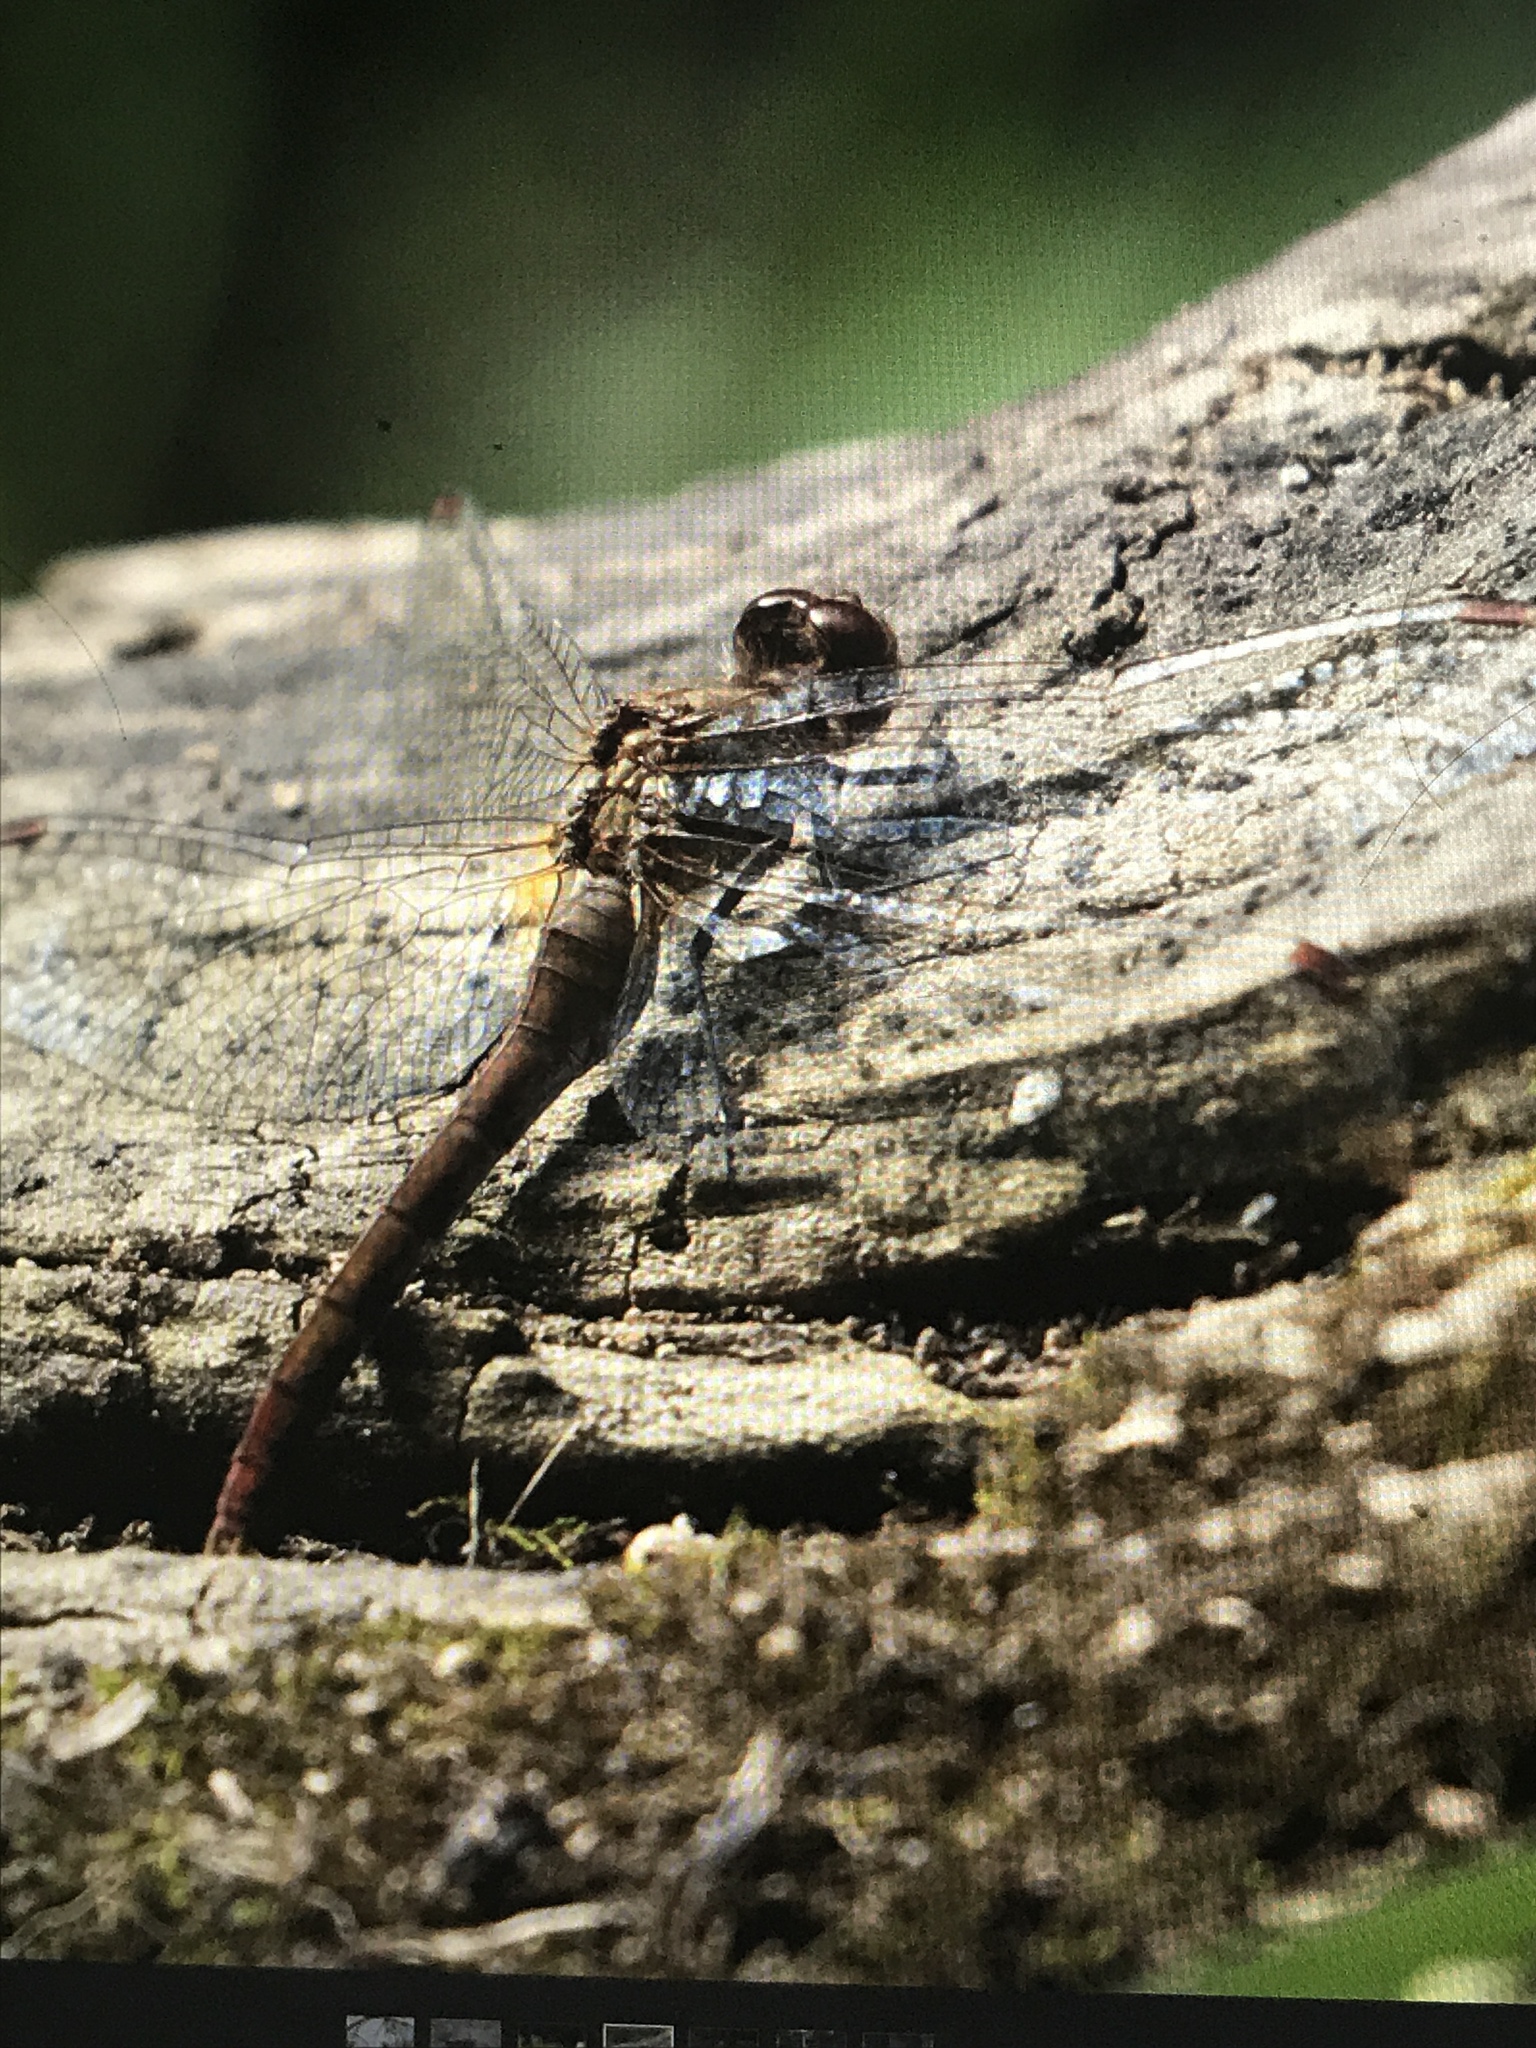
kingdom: Animalia
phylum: Arthropoda
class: Insecta
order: Odonata
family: Libellulidae
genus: Sympetrum
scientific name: Sympetrum
